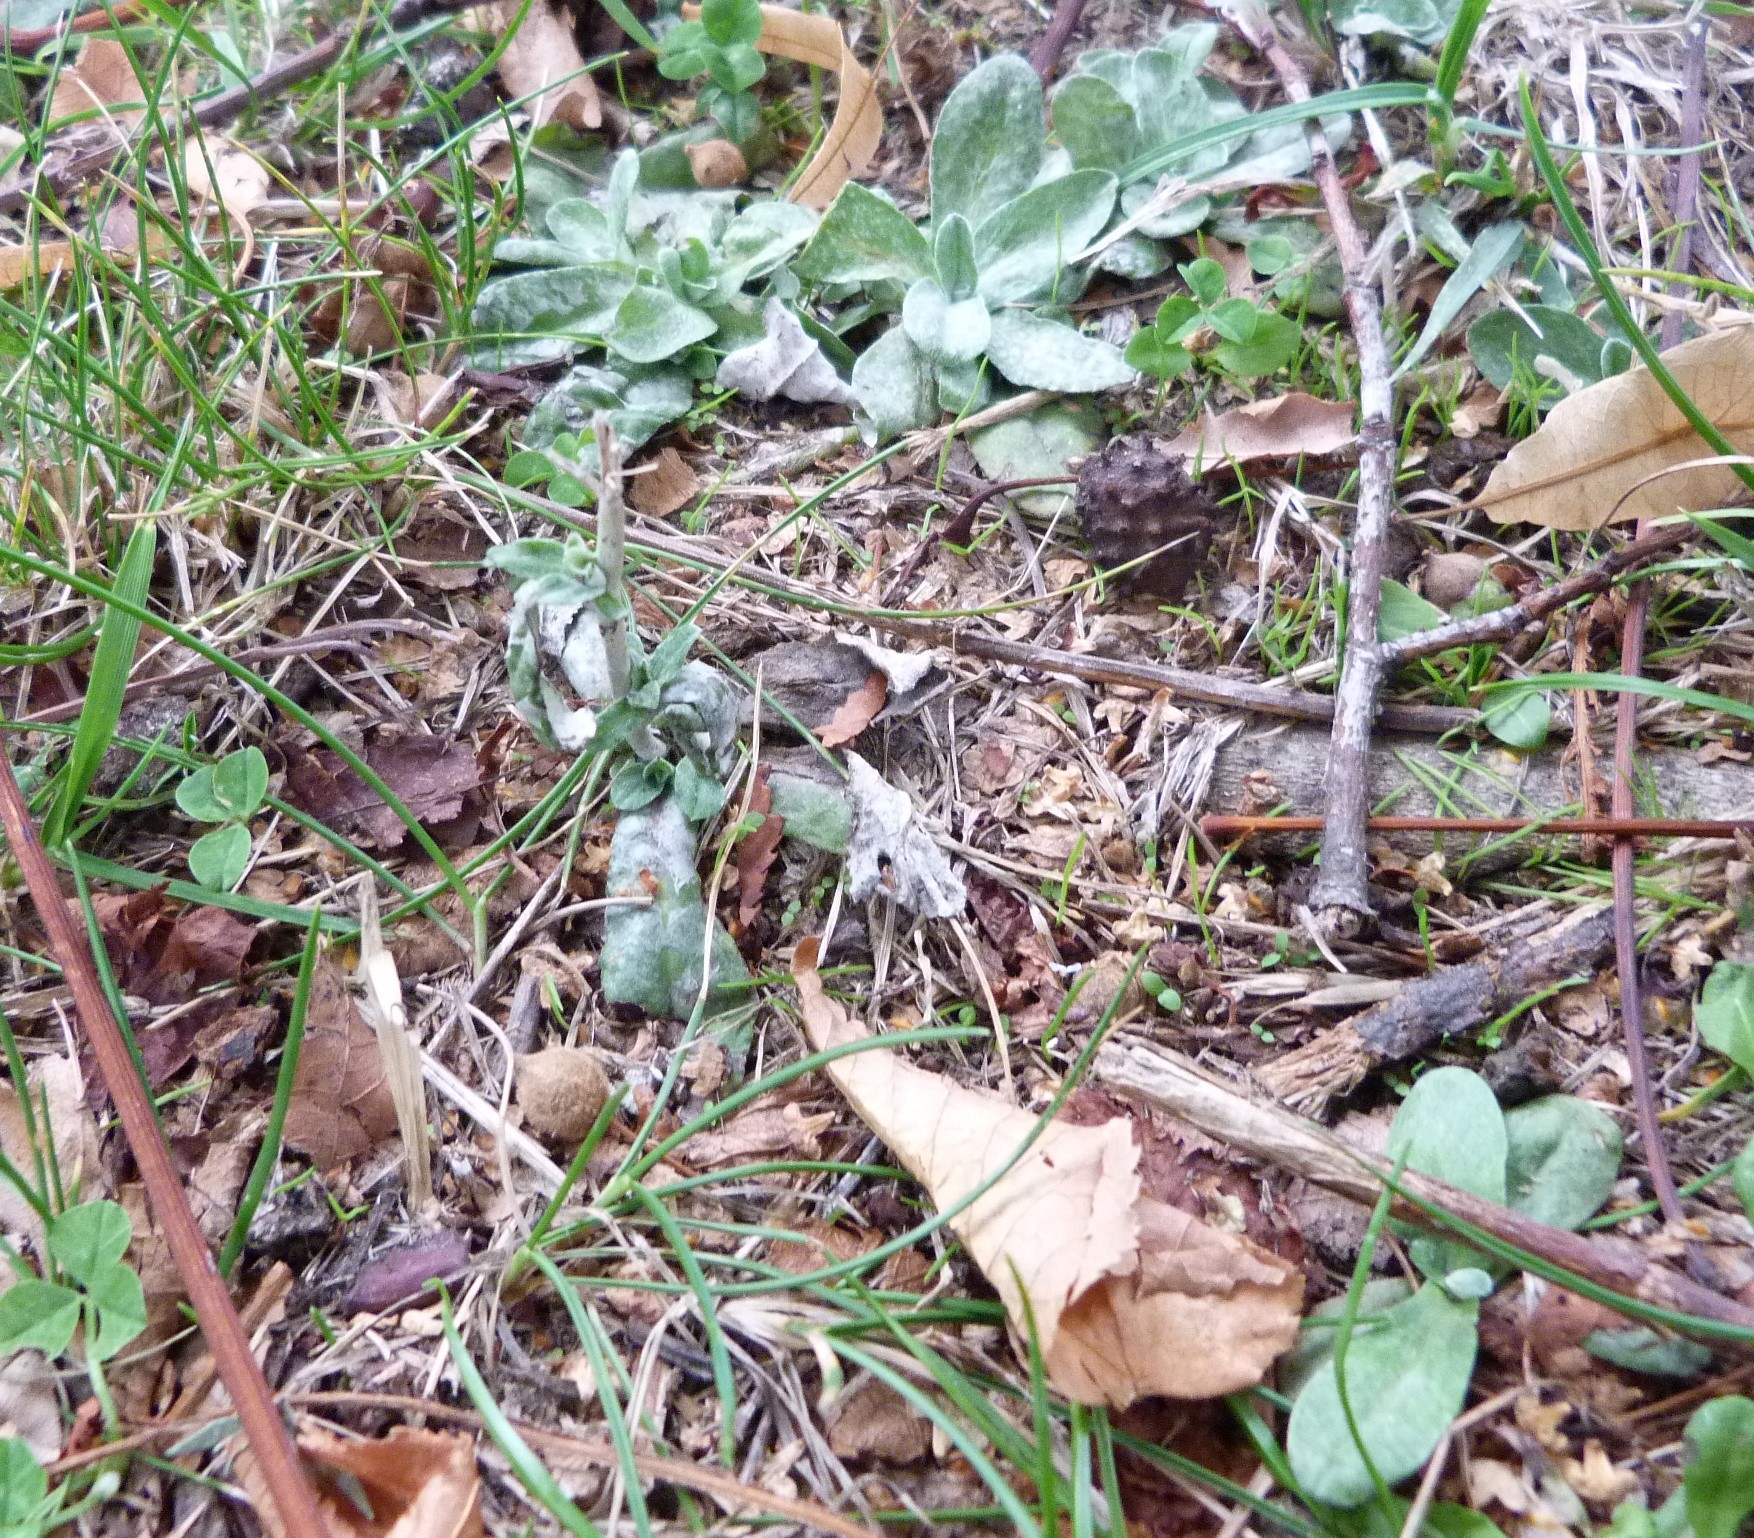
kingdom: Plantae
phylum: Tracheophyta
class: Magnoliopsida
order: Asterales
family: Asteraceae
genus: Euchiton
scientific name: Euchiton involucratus
